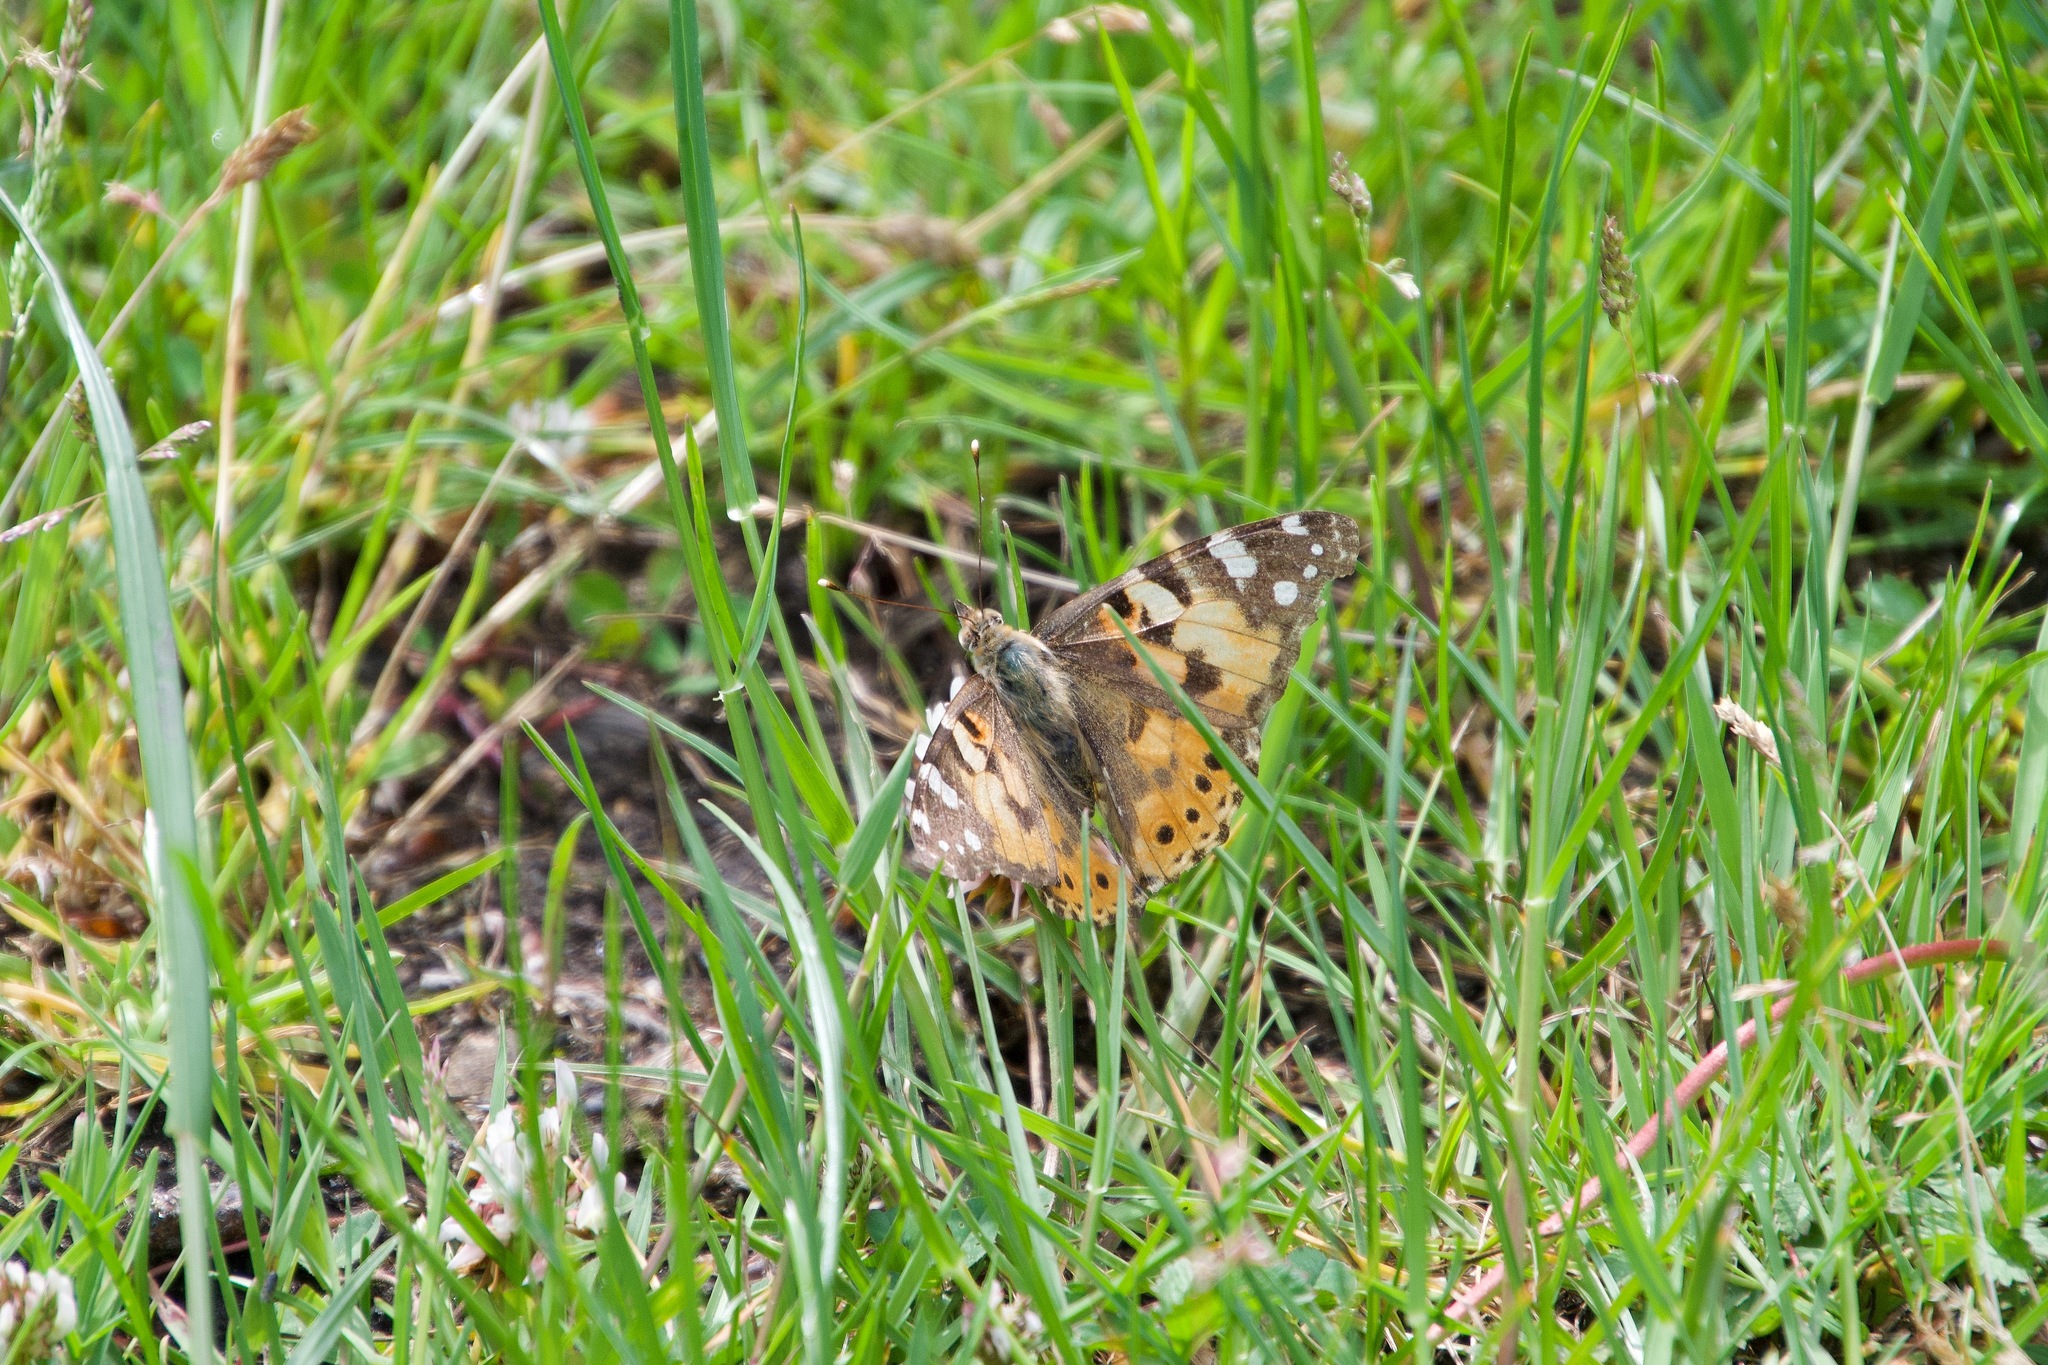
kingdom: Animalia
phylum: Arthropoda
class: Insecta
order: Lepidoptera
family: Nymphalidae
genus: Vanessa
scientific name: Vanessa cardui
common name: Painted lady
